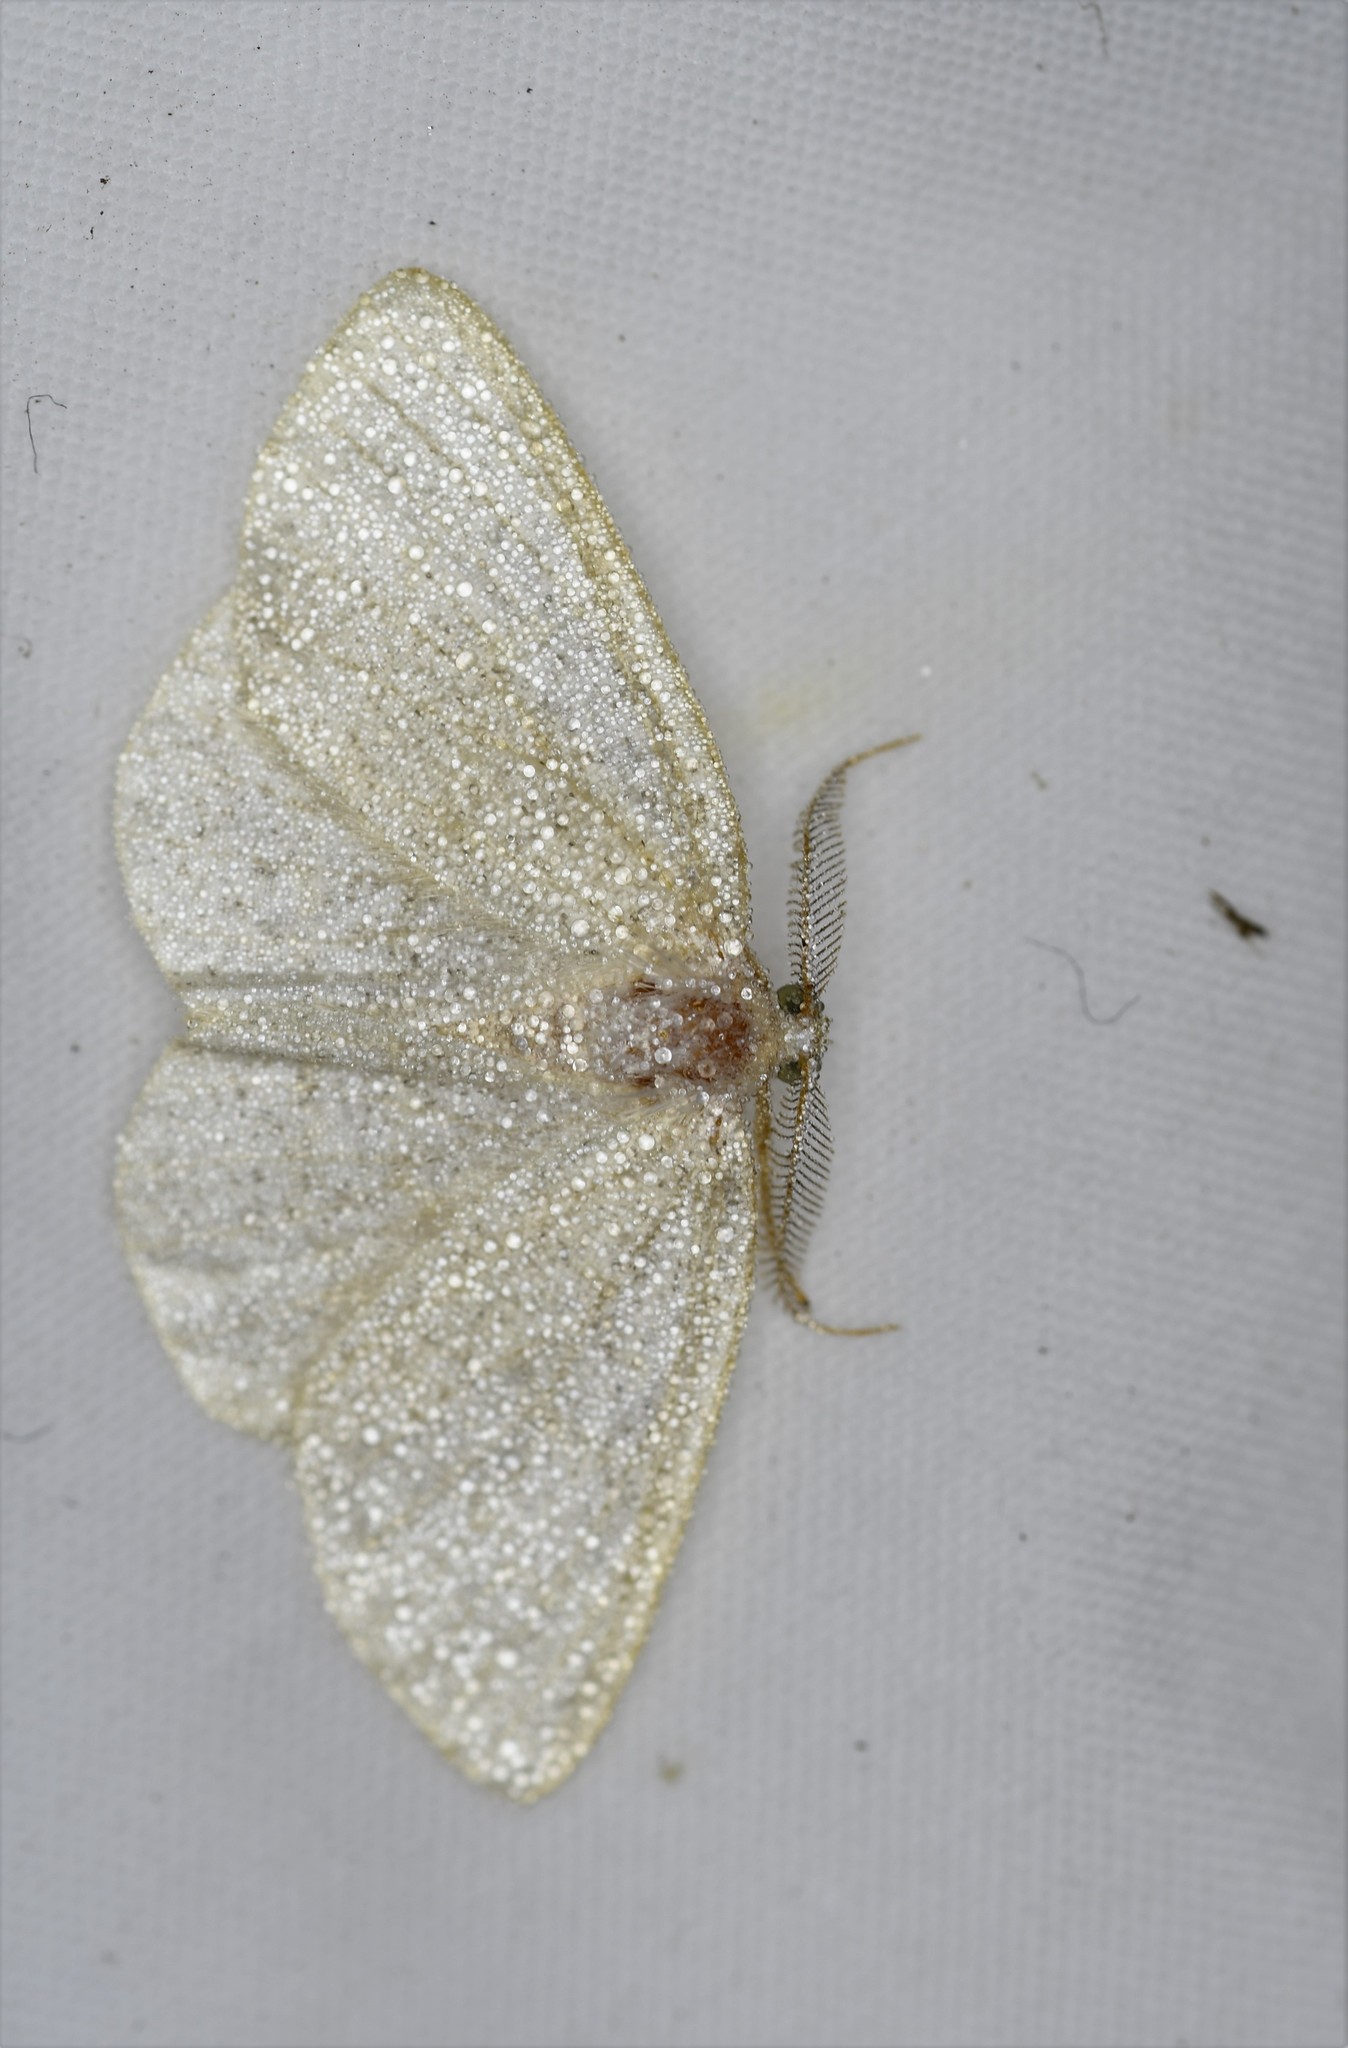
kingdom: Animalia
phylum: Arthropoda
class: Insecta
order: Lepidoptera
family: Geometridae
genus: Cabera
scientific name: Cabera exanthemata
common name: Common wave
